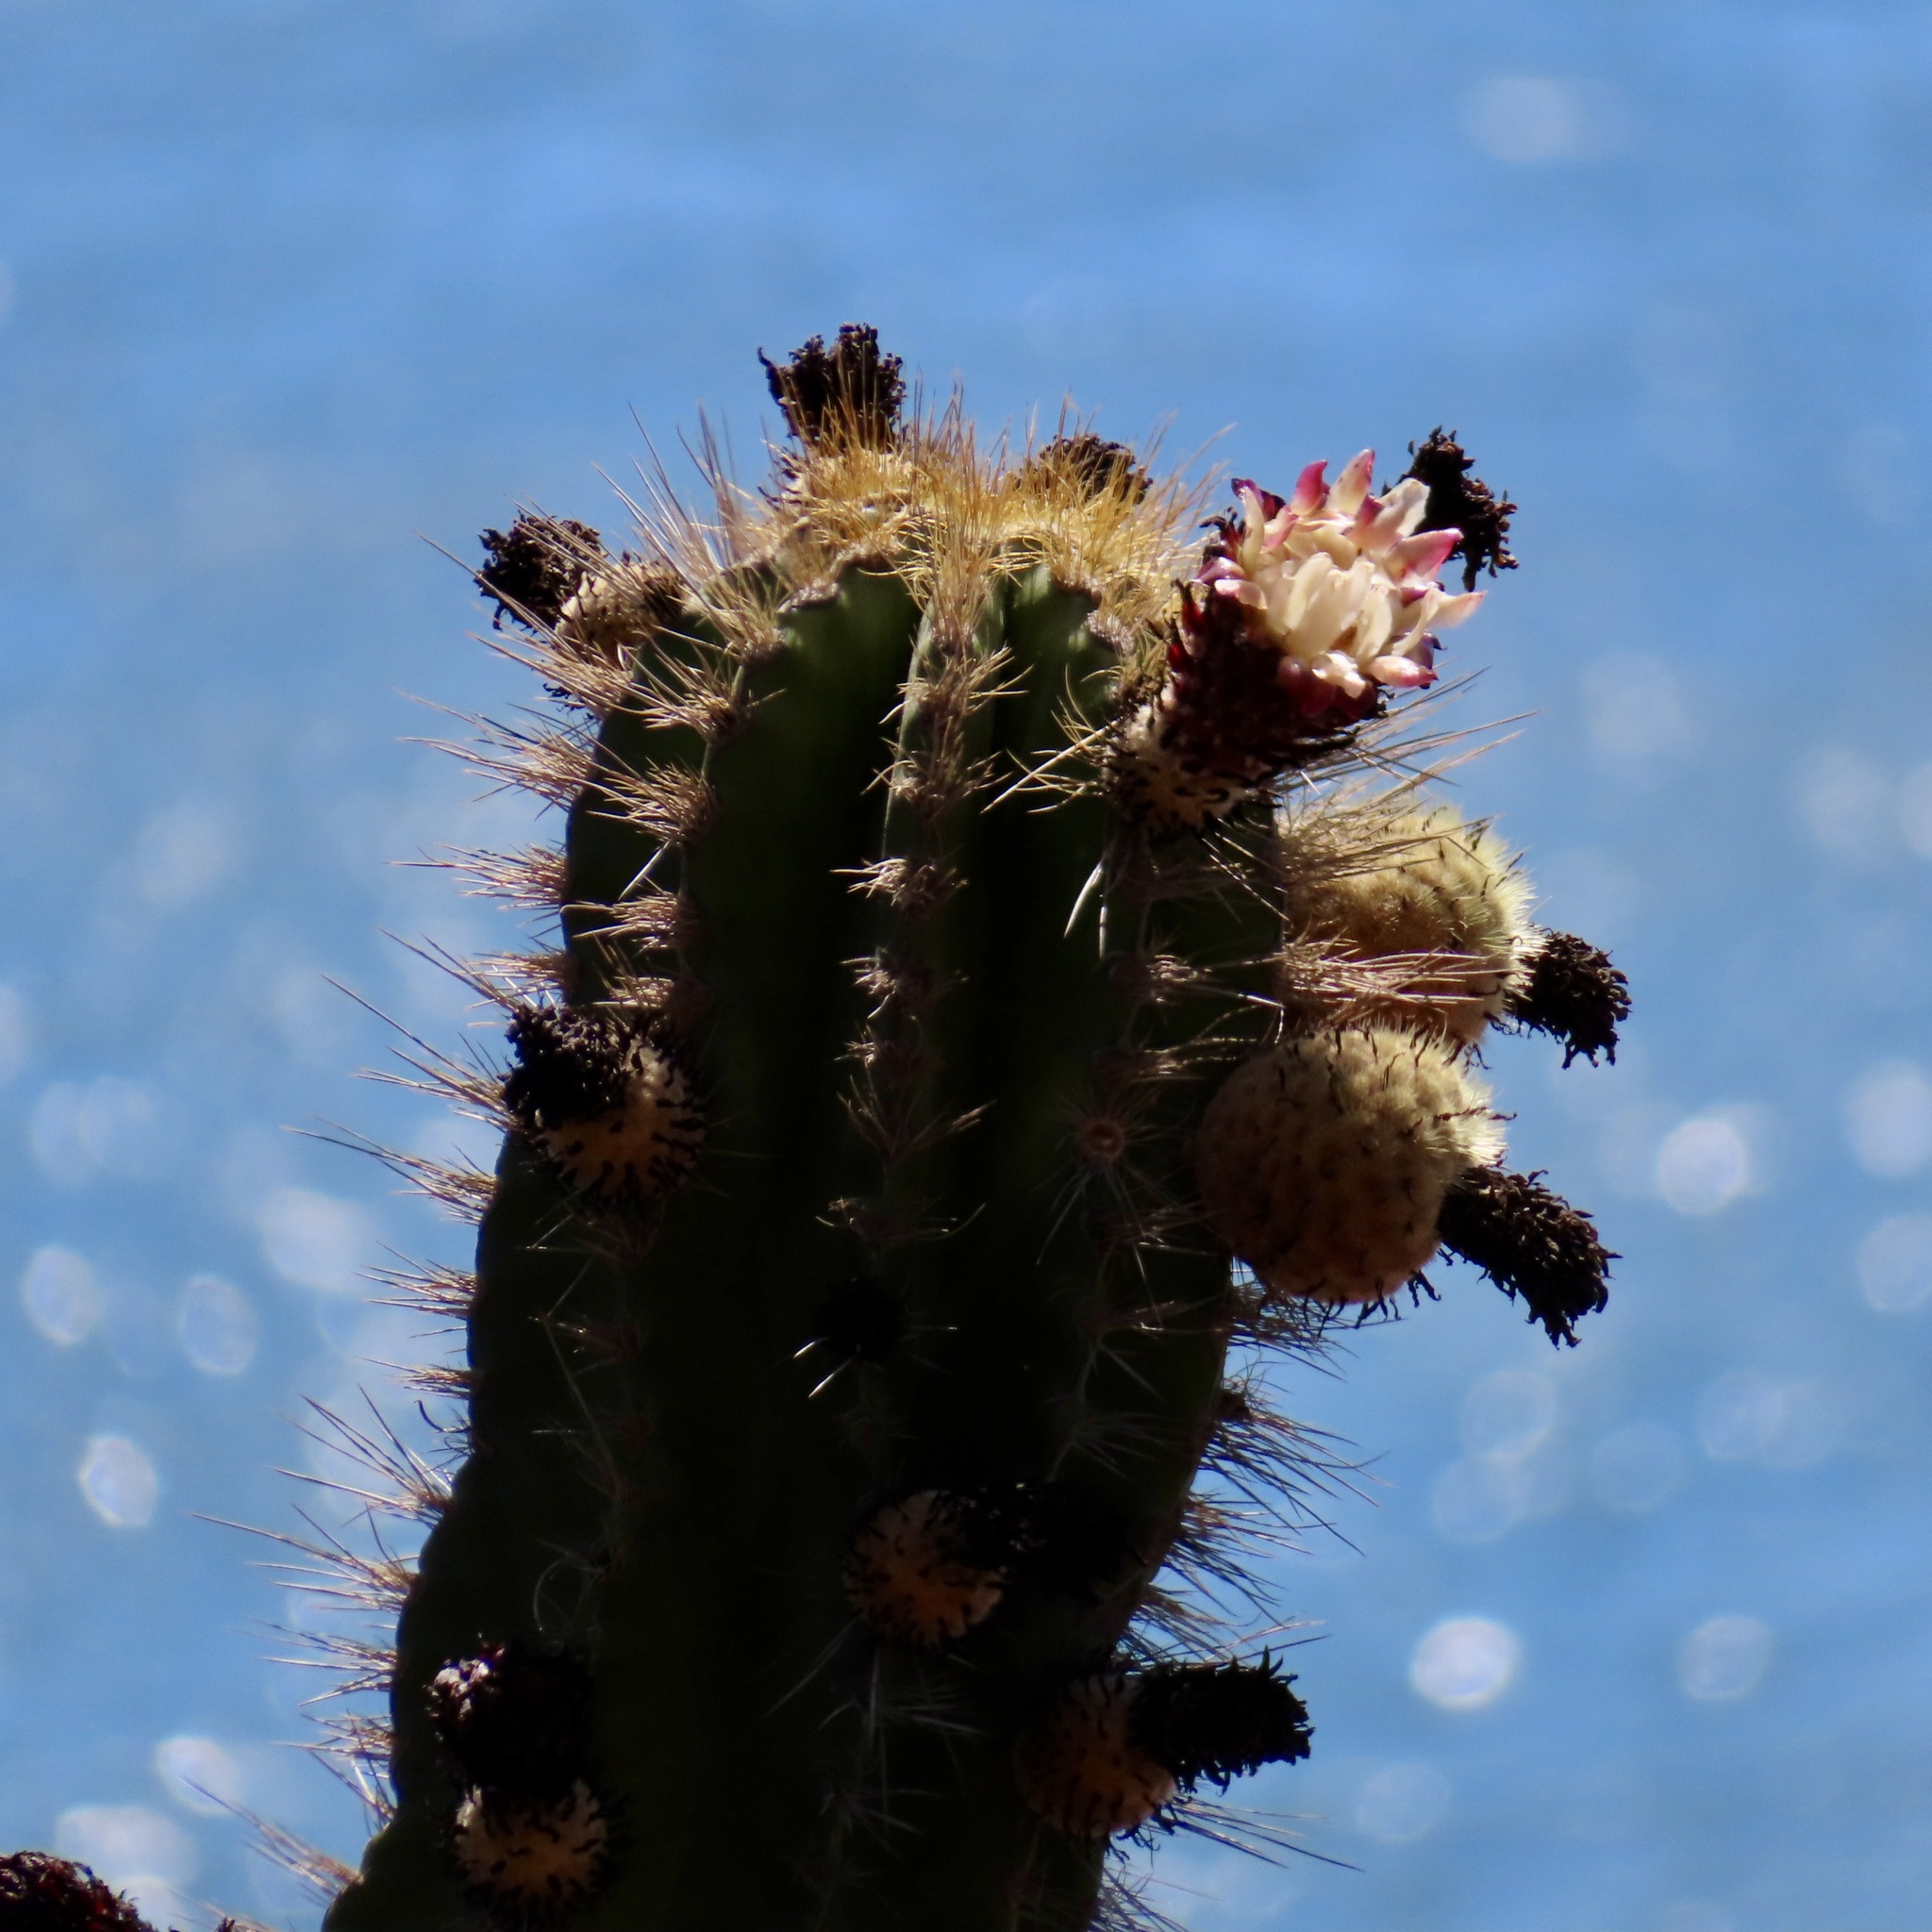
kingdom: Plantae
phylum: Tracheophyta
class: Magnoliopsida
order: Caryophyllales
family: Cactaceae
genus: Pachycereus
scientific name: Pachycereus pecten-aboriginum
